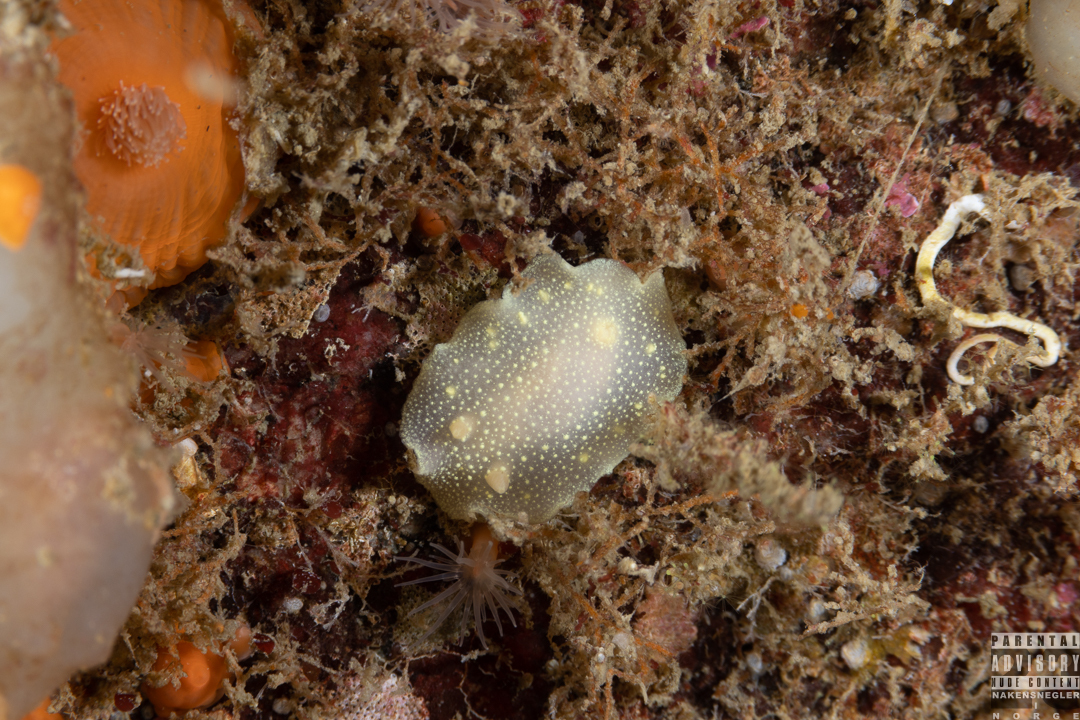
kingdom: Animalia
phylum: Mollusca
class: Gastropoda
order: Nudibranchia
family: Cadlinidae
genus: Cadlina
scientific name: Cadlina laevis
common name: White atlantic cadlina
